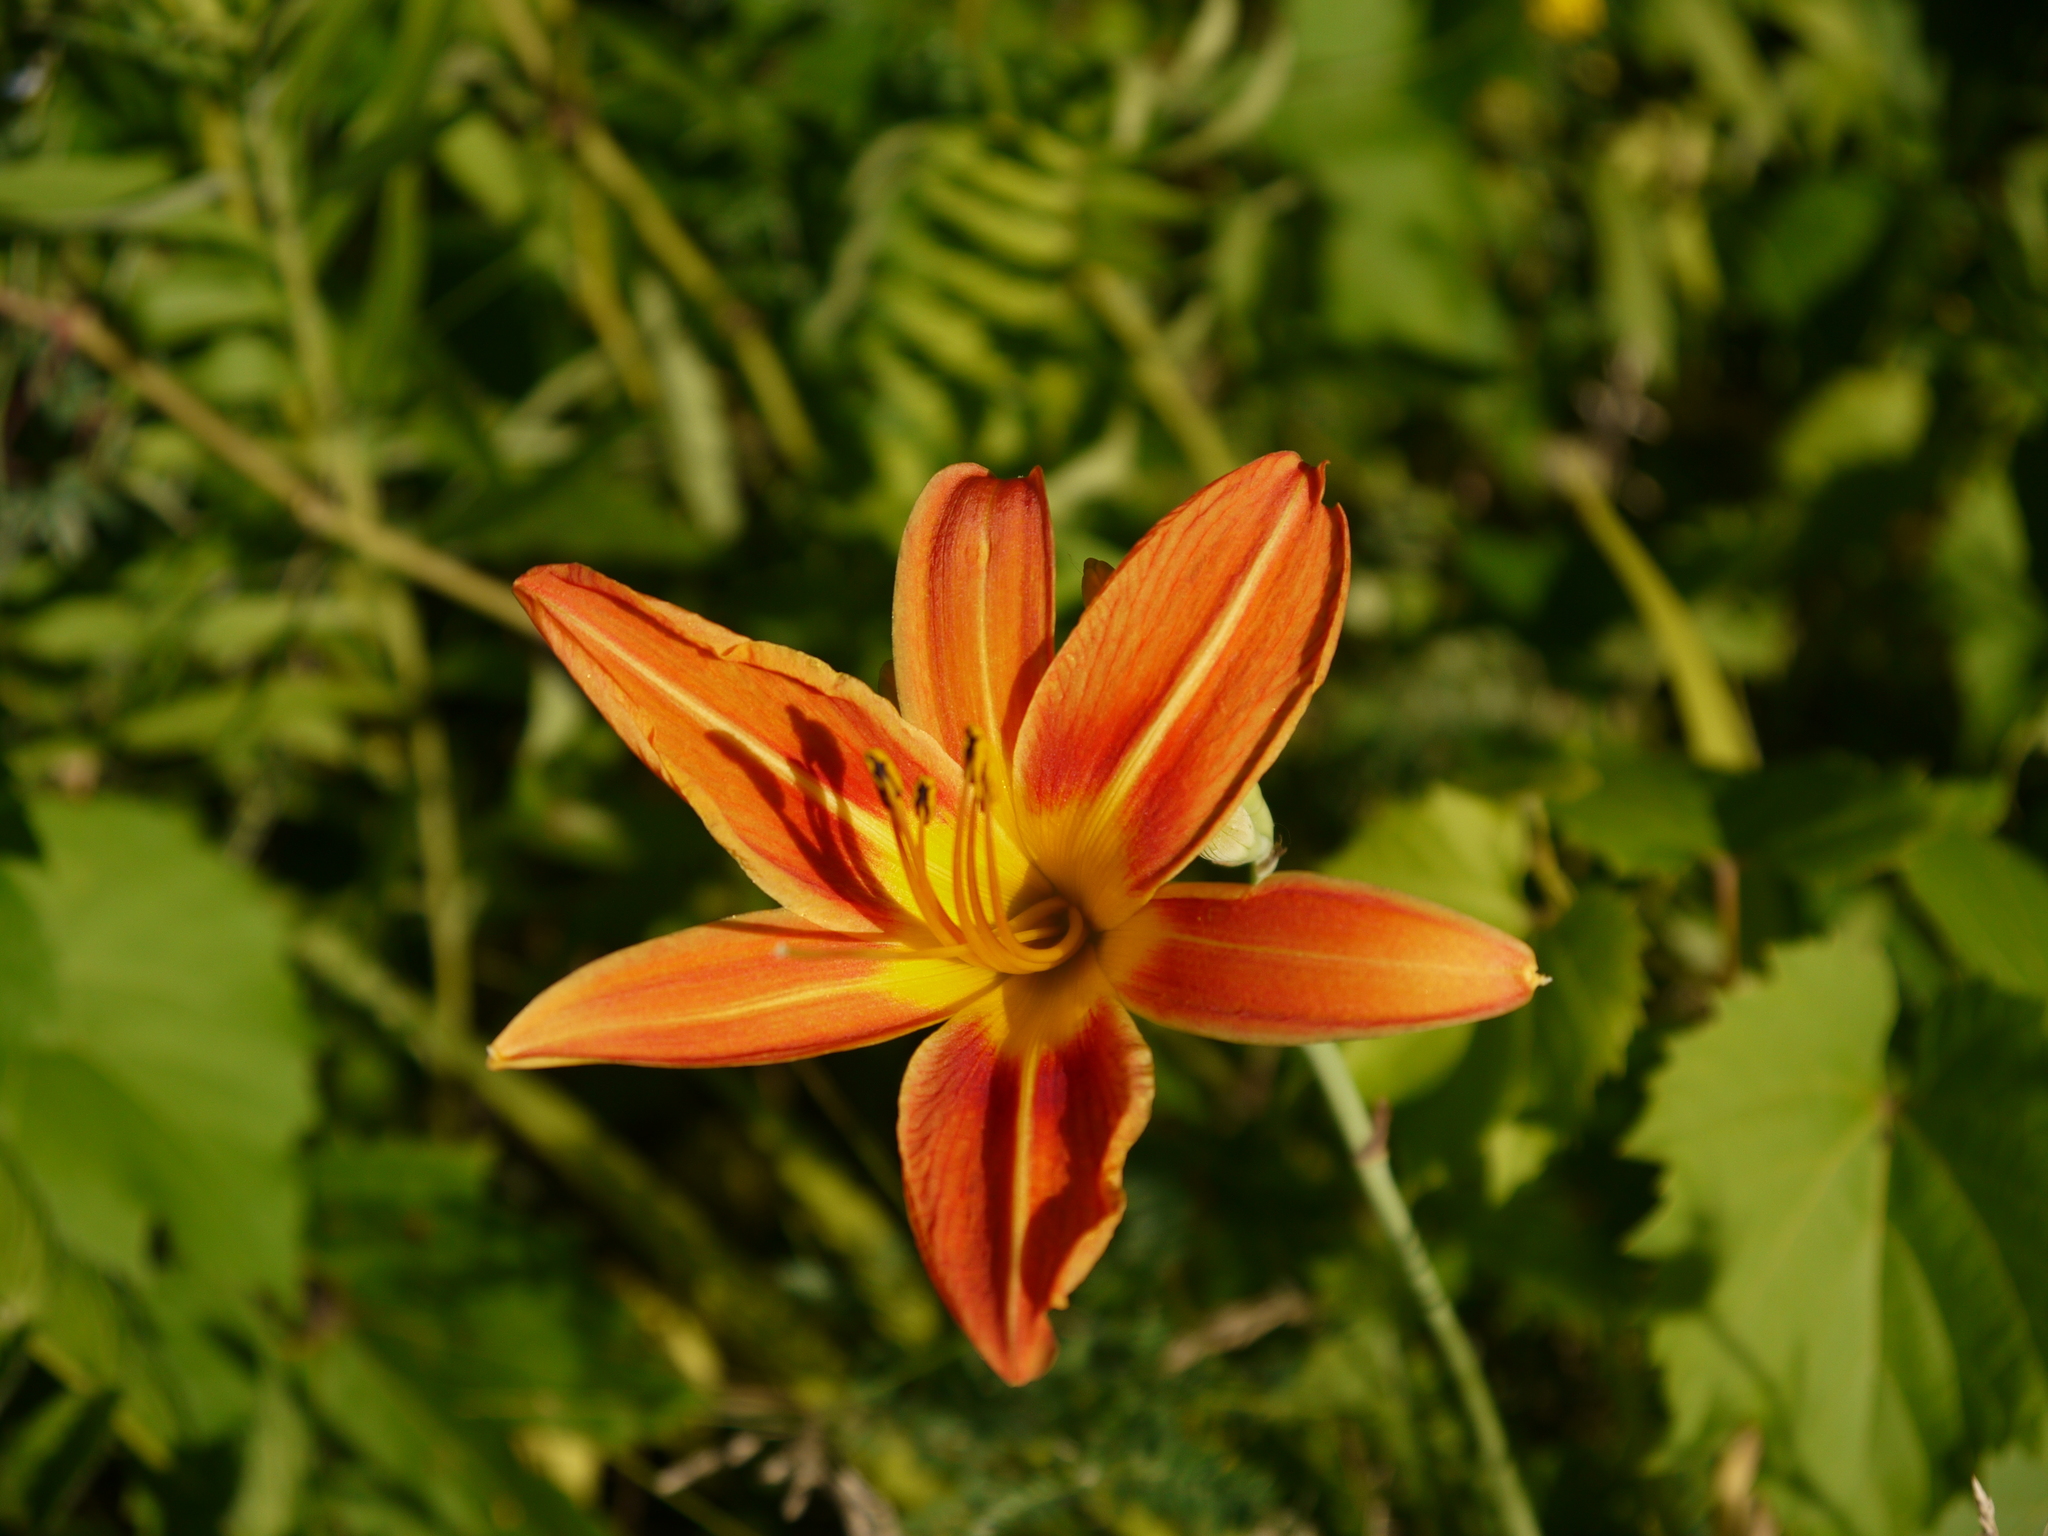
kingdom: Plantae
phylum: Tracheophyta
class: Liliopsida
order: Asparagales
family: Asphodelaceae
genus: Hemerocallis
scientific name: Hemerocallis fulva
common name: Orange day-lily
